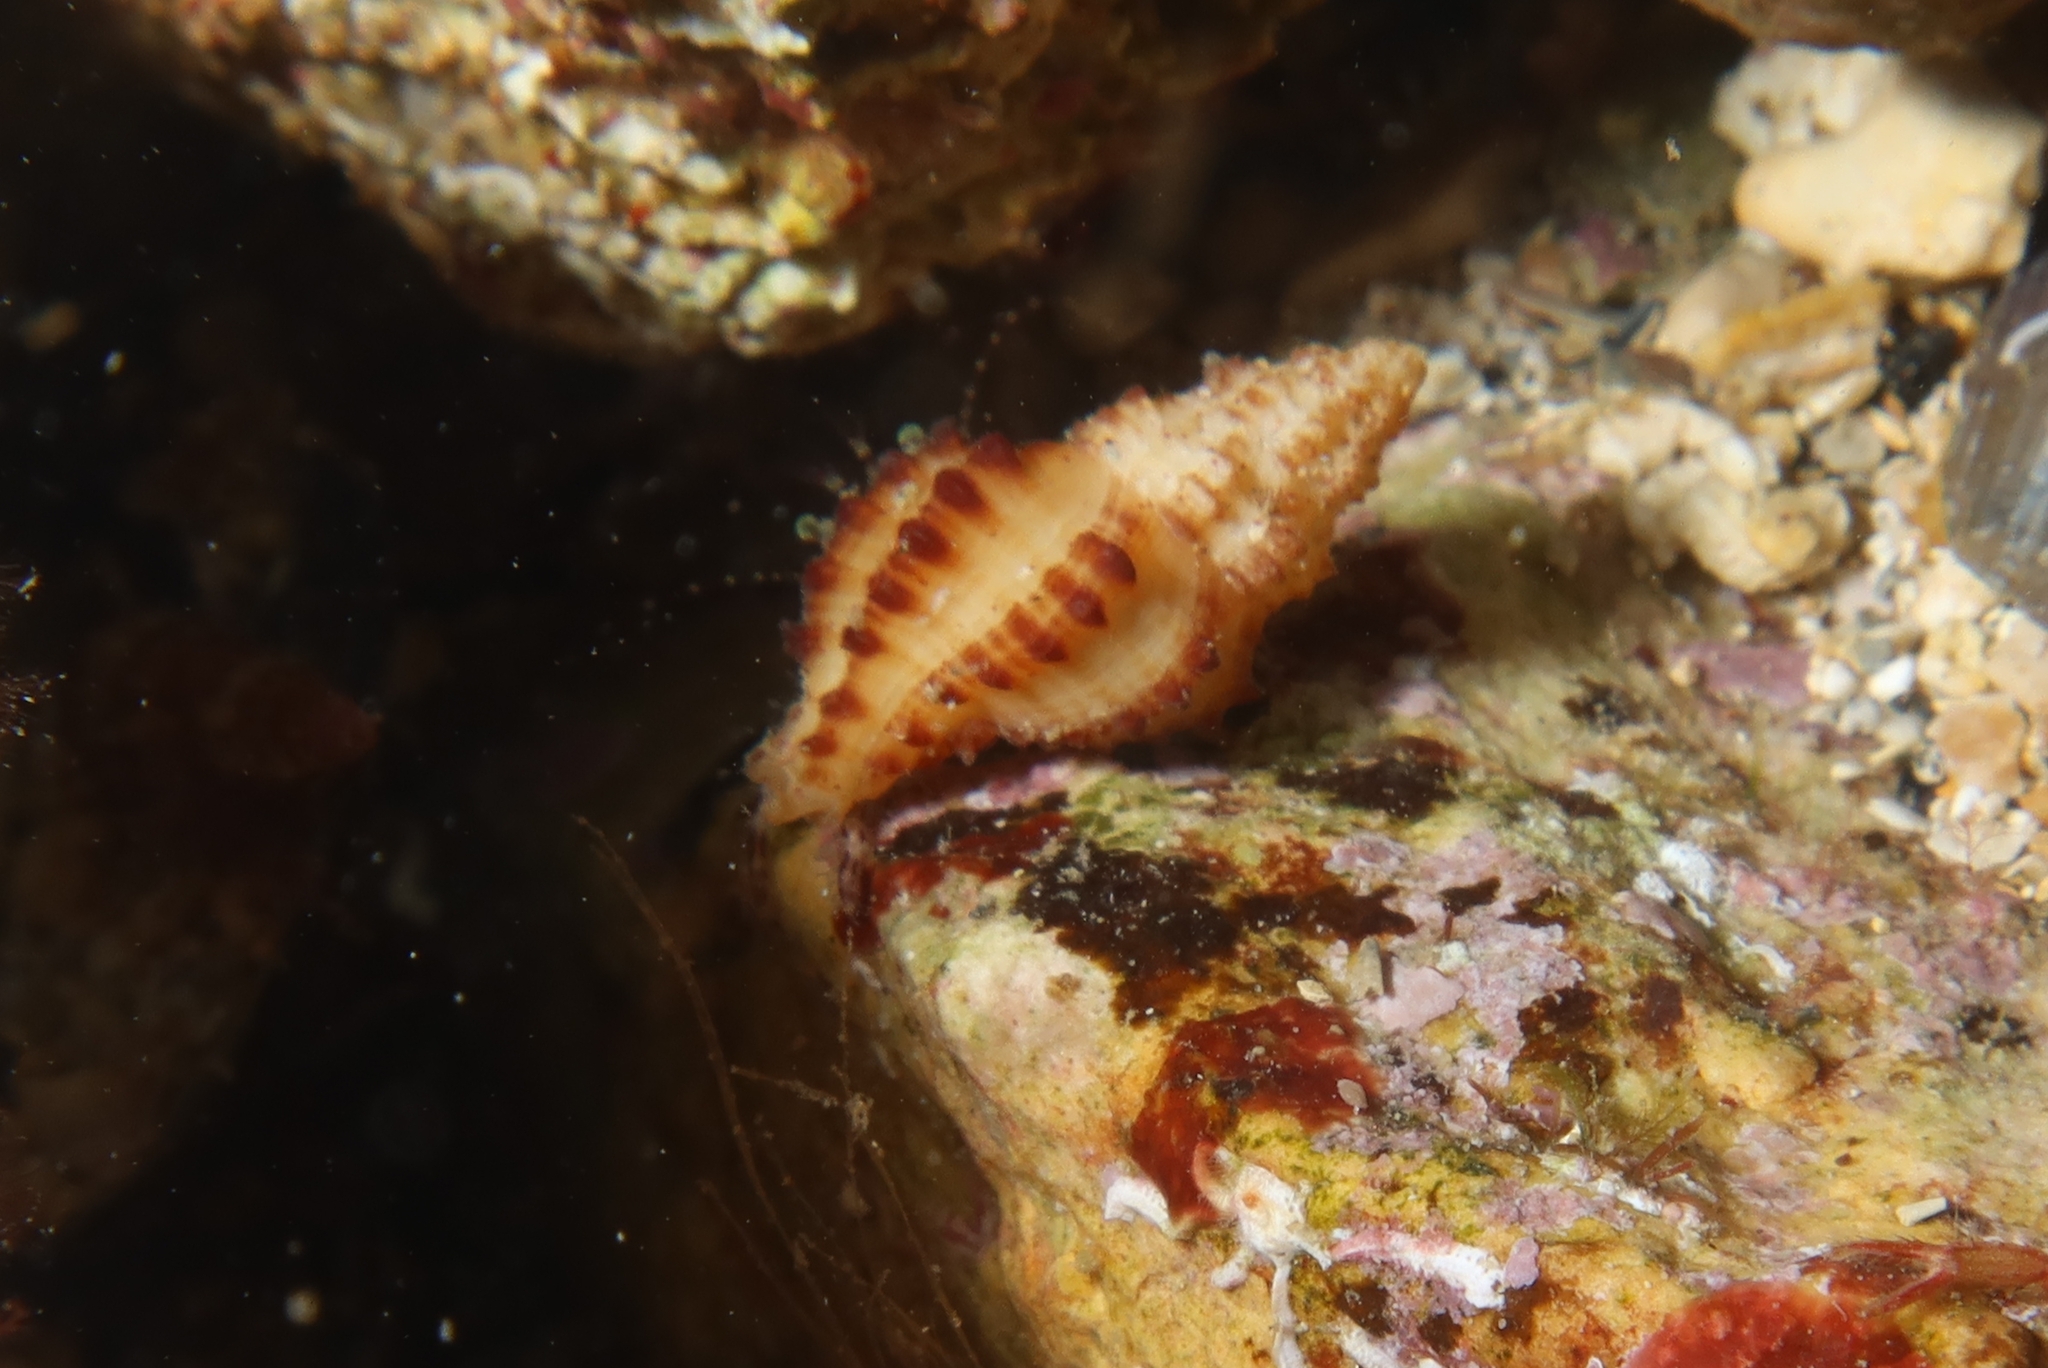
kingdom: Animalia
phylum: Mollusca
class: Gastropoda
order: Neogastropoda
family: Muricidae
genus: Muricopsis
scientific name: Muricopsis cristata
